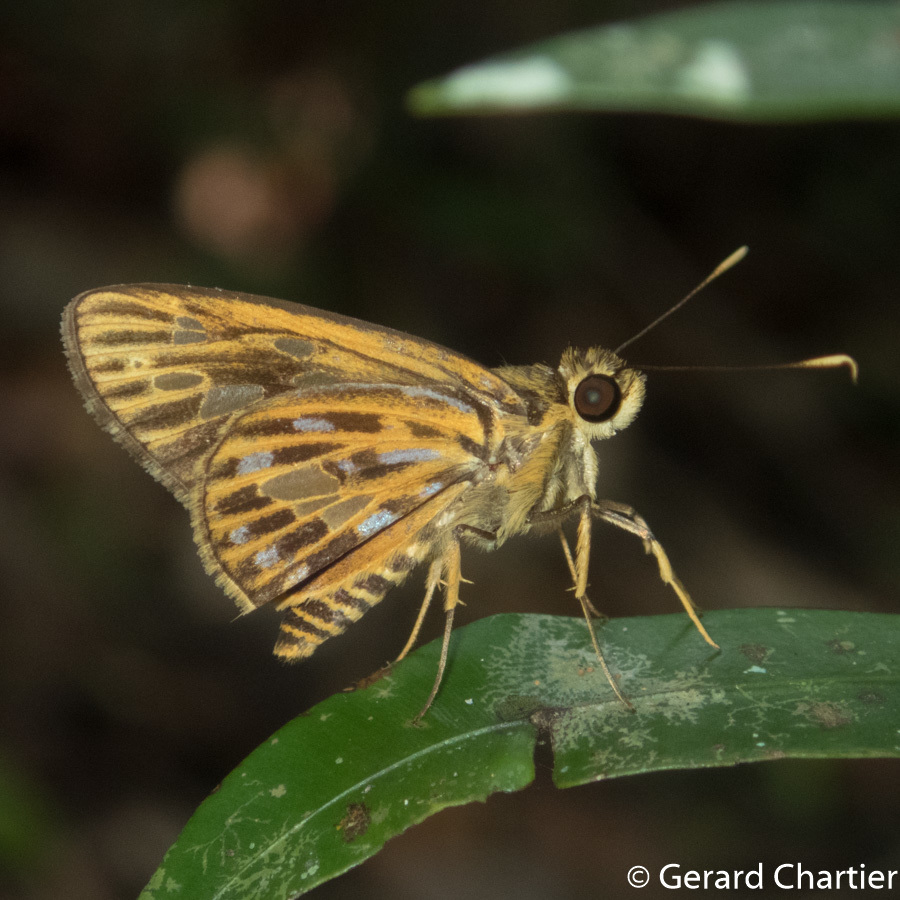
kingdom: Animalia
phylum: Arthropoda
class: Insecta
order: Lepidoptera
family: Hesperiidae
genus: Pyroneura
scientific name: Pyroneura margherita
